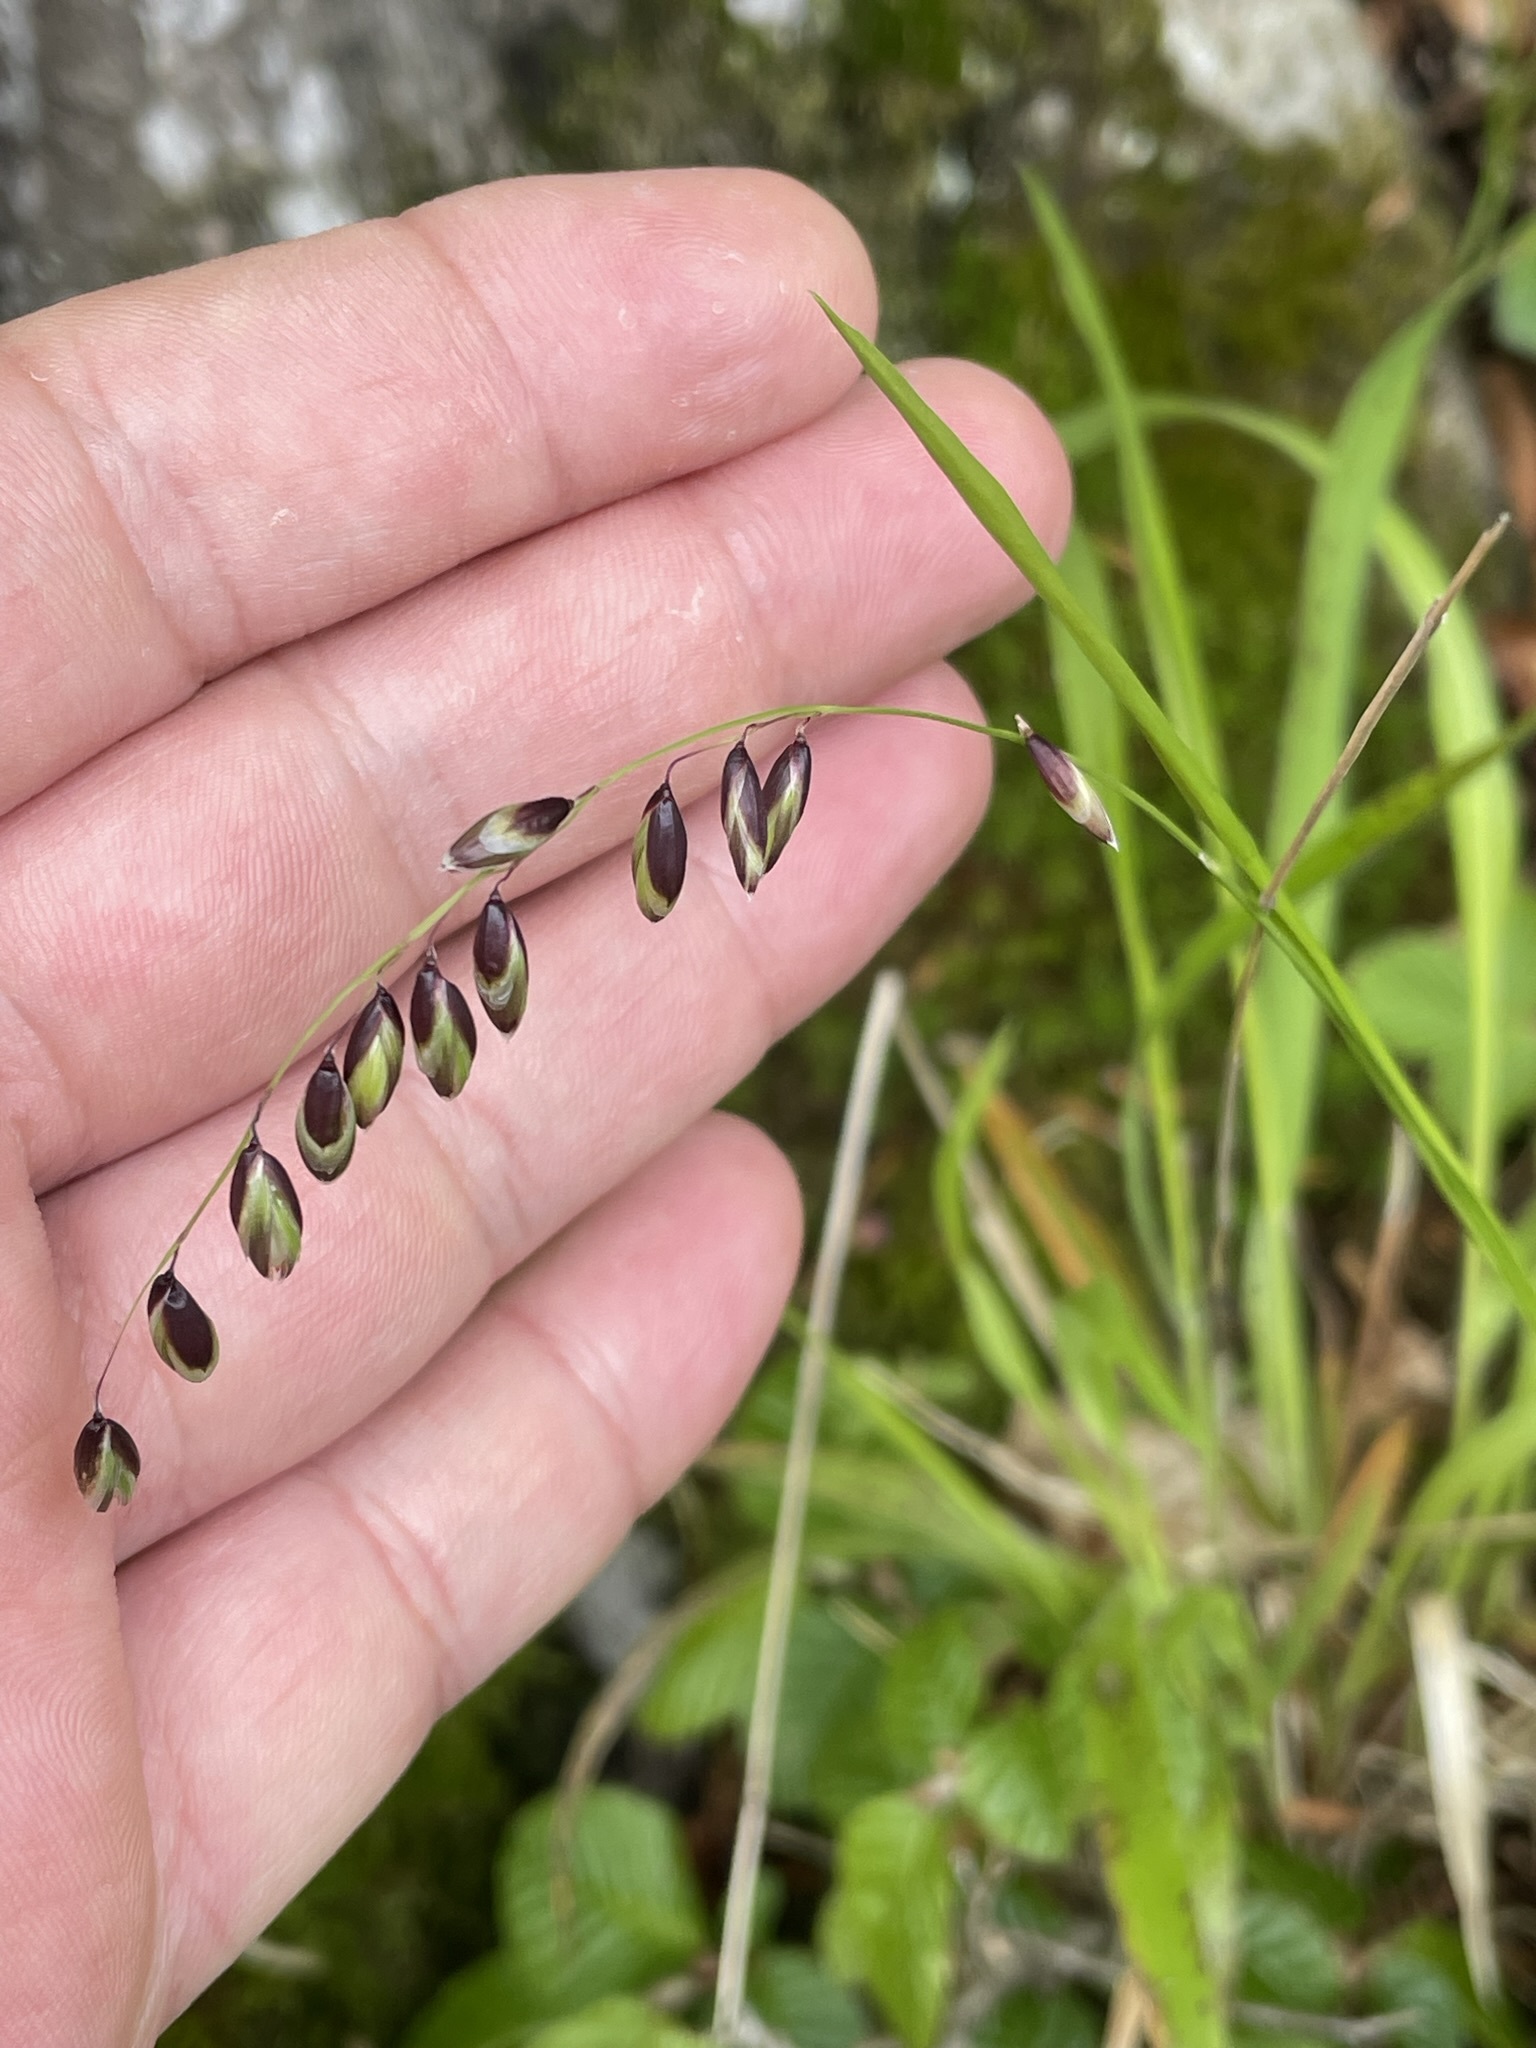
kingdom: Plantae
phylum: Tracheophyta
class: Liliopsida
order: Poales
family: Poaceae
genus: Melica
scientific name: Melica nutans
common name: Mountain melick
